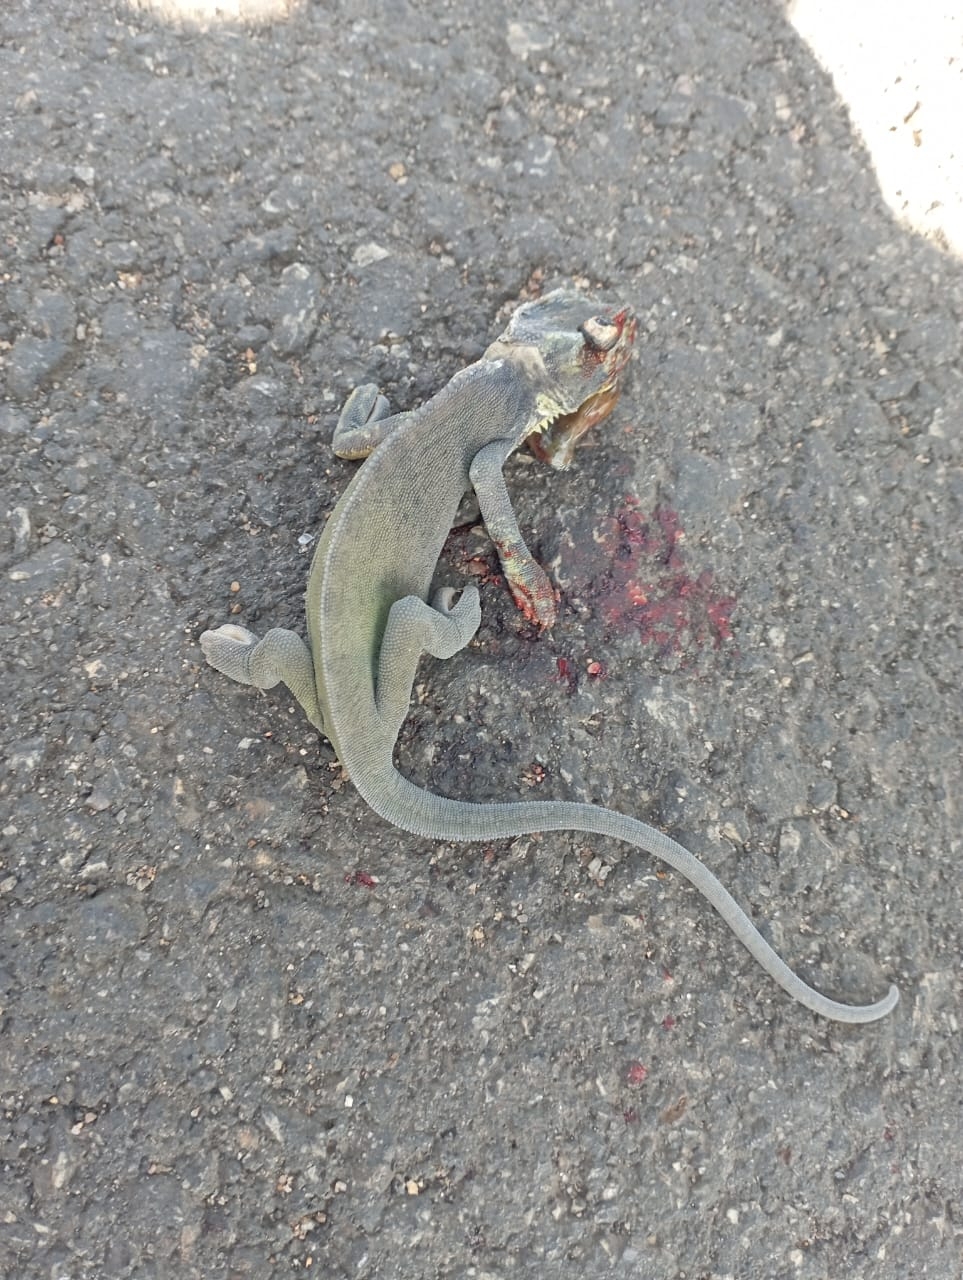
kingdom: Animalia
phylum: Chordata
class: Squamata
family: Chamaeleonidae
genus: Chamaeleo
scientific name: Chamaeleo gracilis
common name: Graceful chameleon
